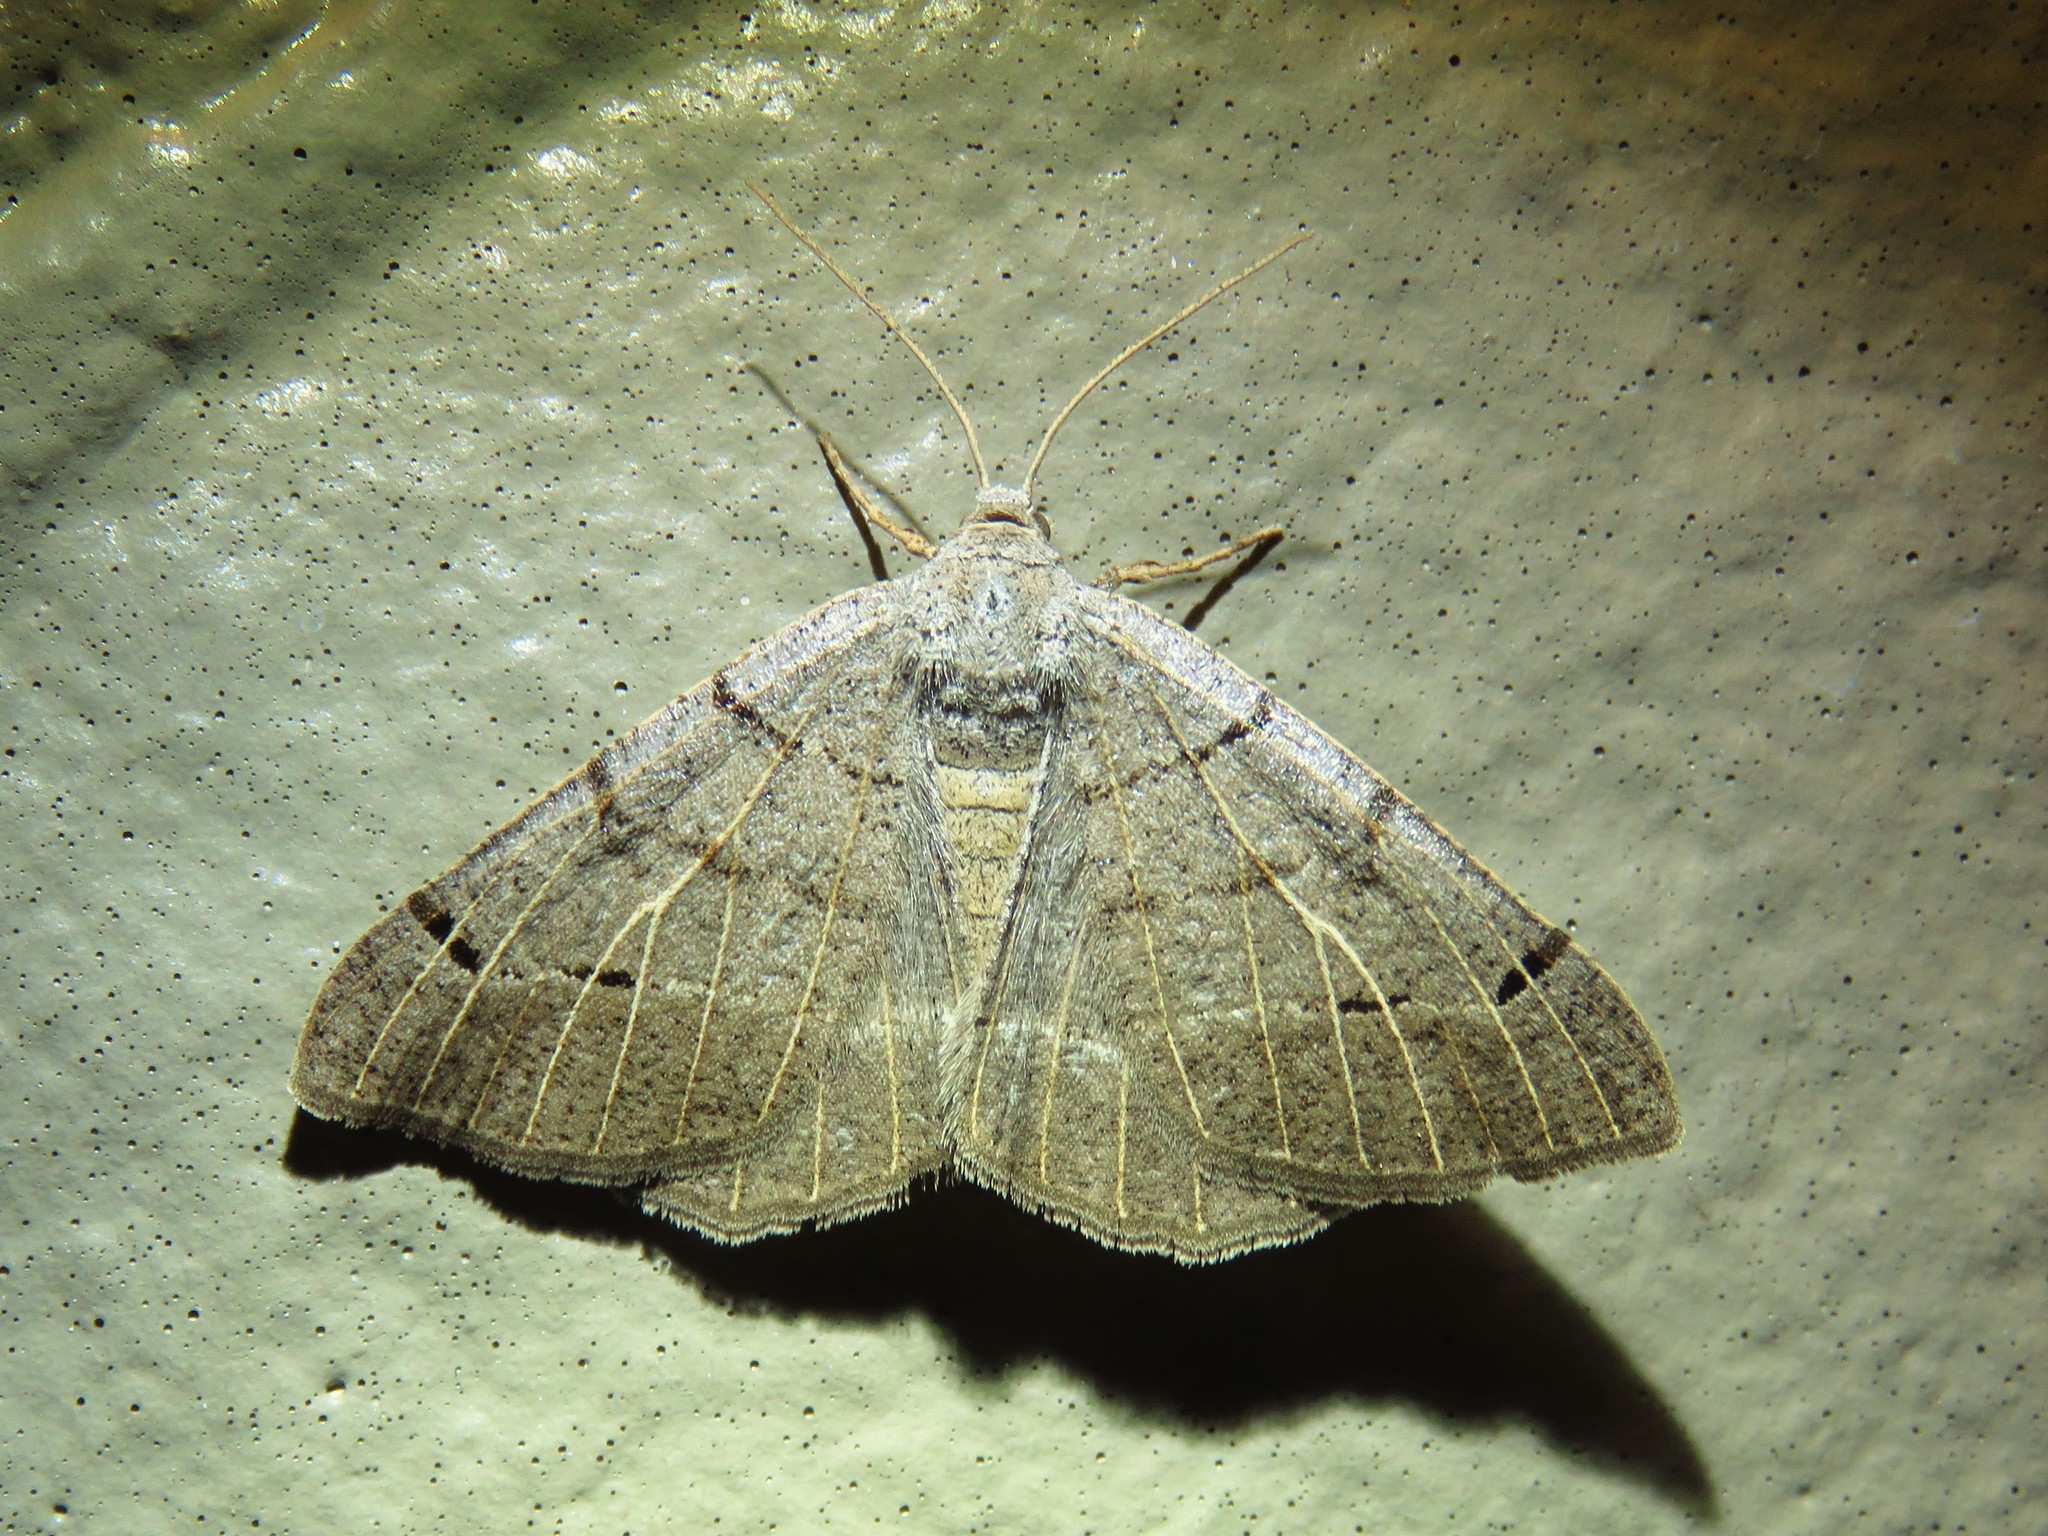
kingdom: Animalia
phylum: Arthropoda
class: Insecta
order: Lepidoptera
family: Geometridae
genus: Isturgia
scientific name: Isturgia dislocaria
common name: Pale-viened enconista
